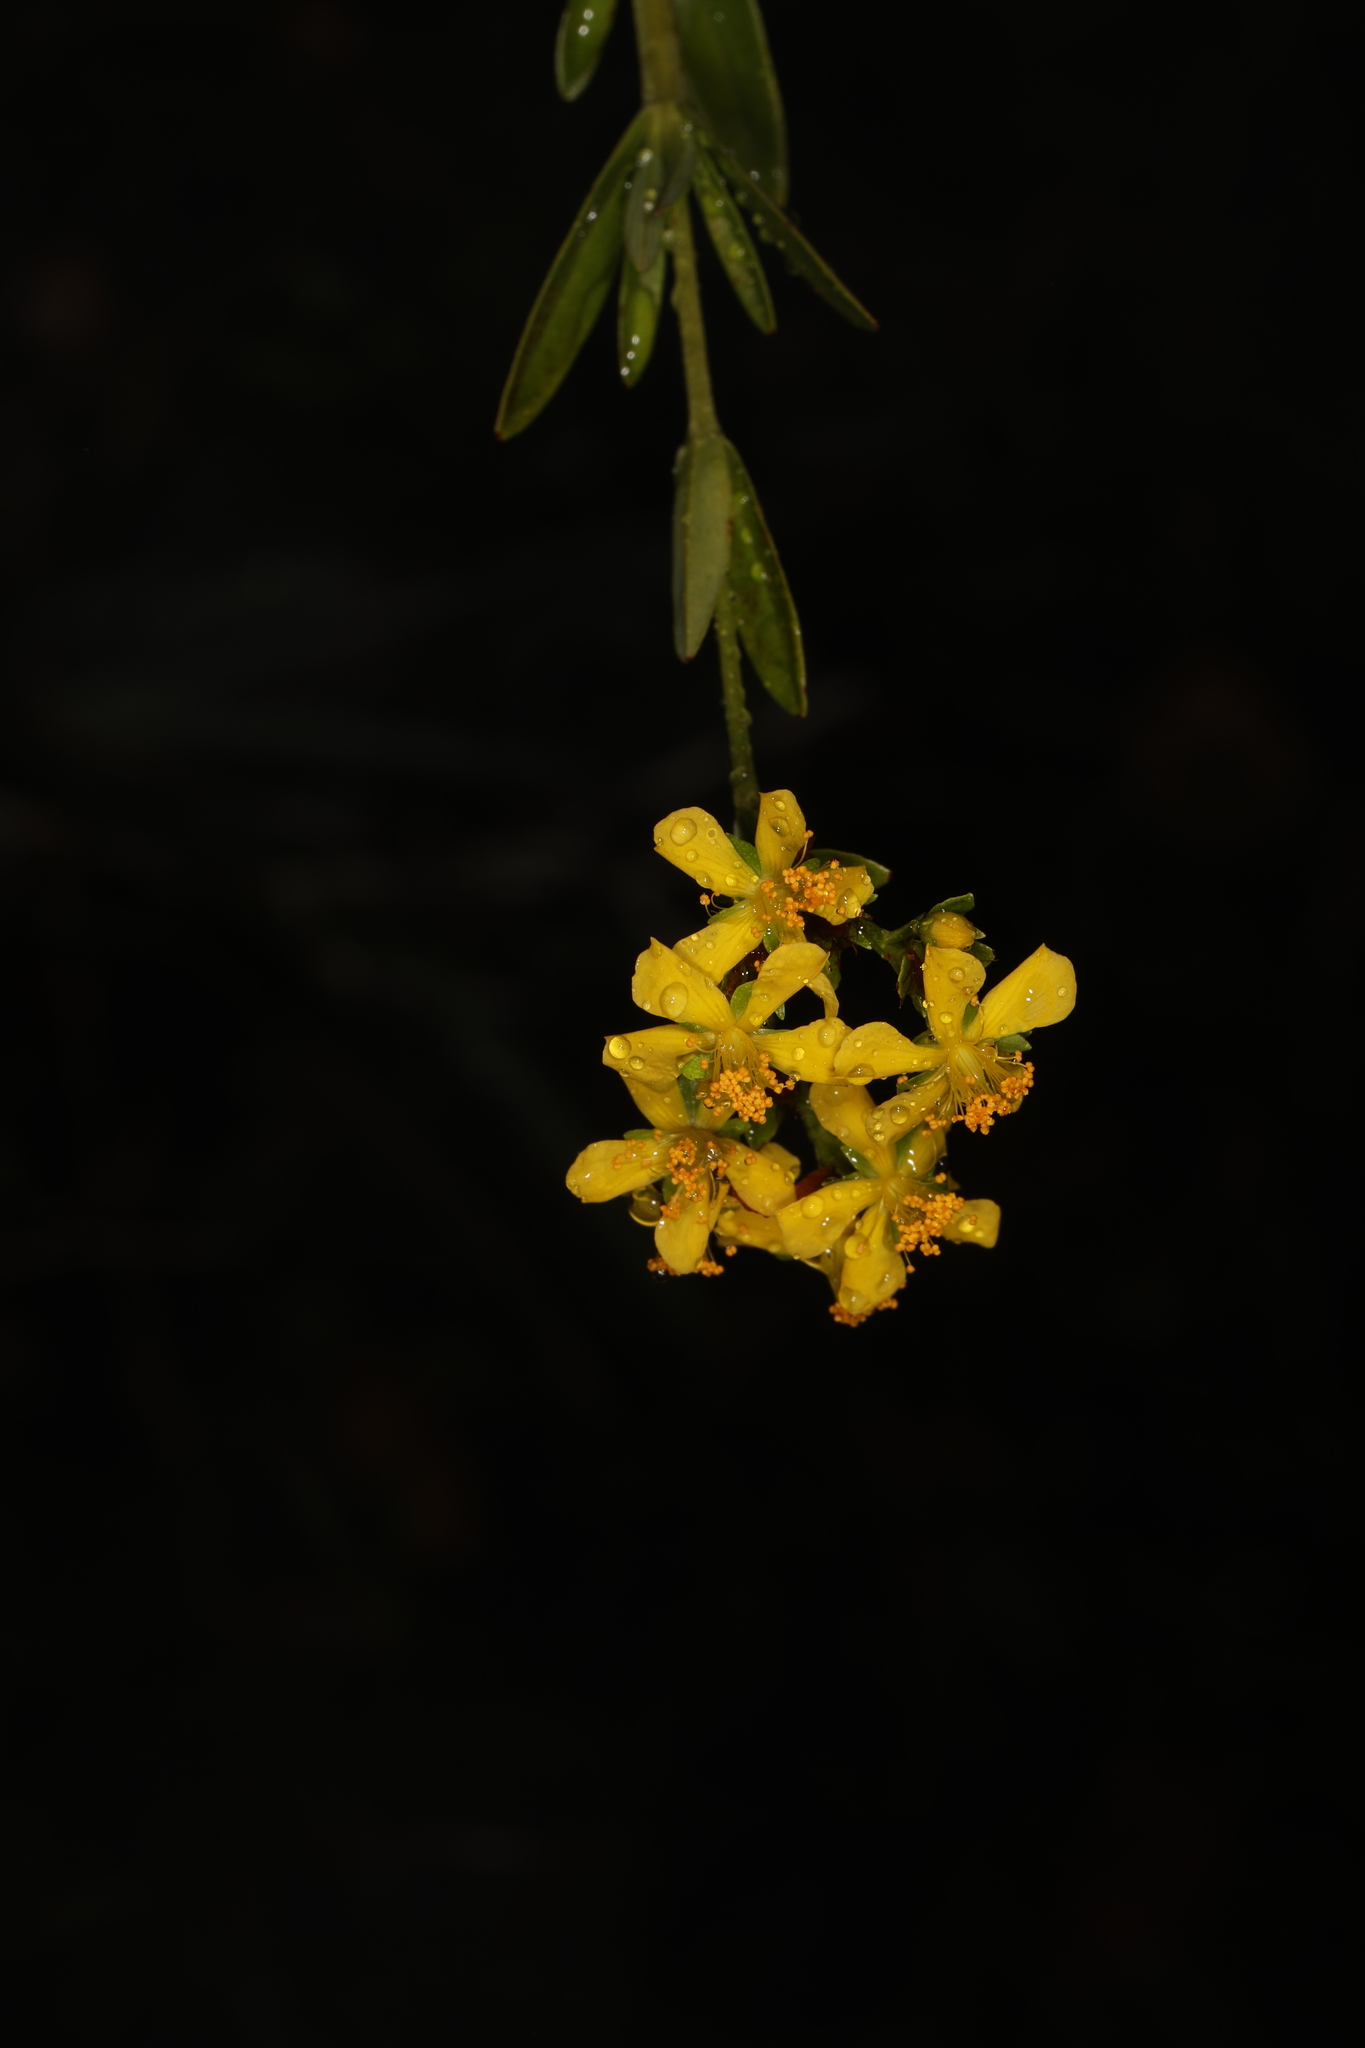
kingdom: Plantae
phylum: Tracheophyta
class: Magnoliopsida
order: Malpighiales
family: Hypericaceae
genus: Hypericum
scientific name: Hypericum cistifolium
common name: Round-pod st. john's-wort
